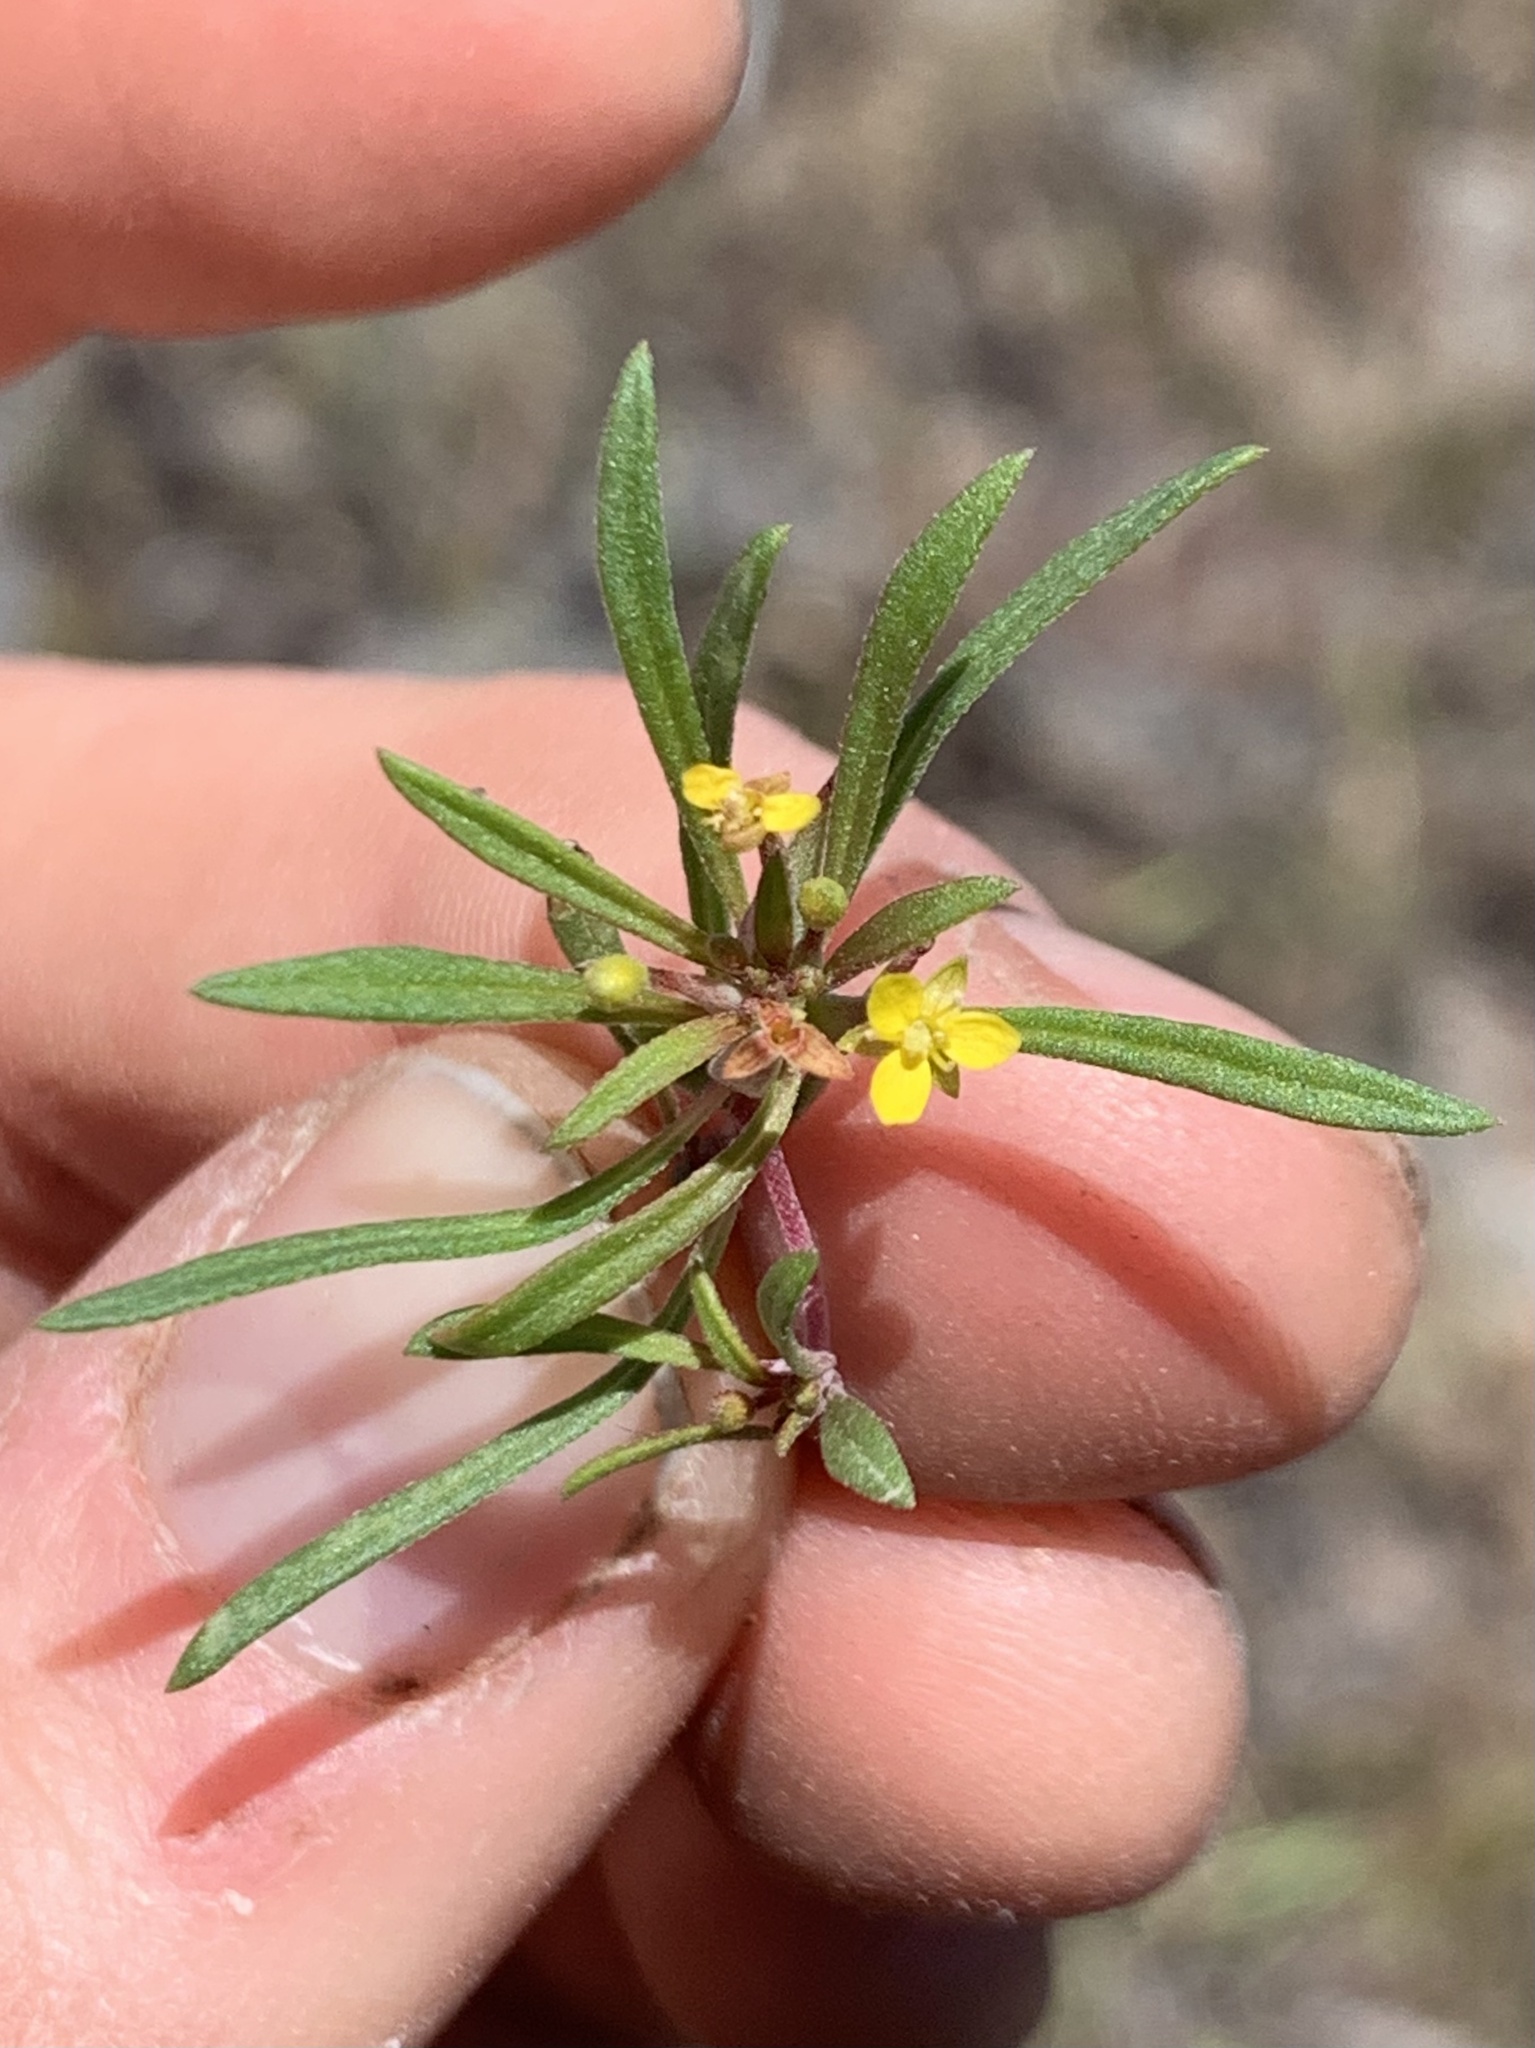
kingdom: Plantae
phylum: Tracheophyta
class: Magnoliopsida
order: Myrtales
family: Onagraceae
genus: Neoholmgrenia
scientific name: Neoholmgrenia andina
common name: Andean evening primrose
